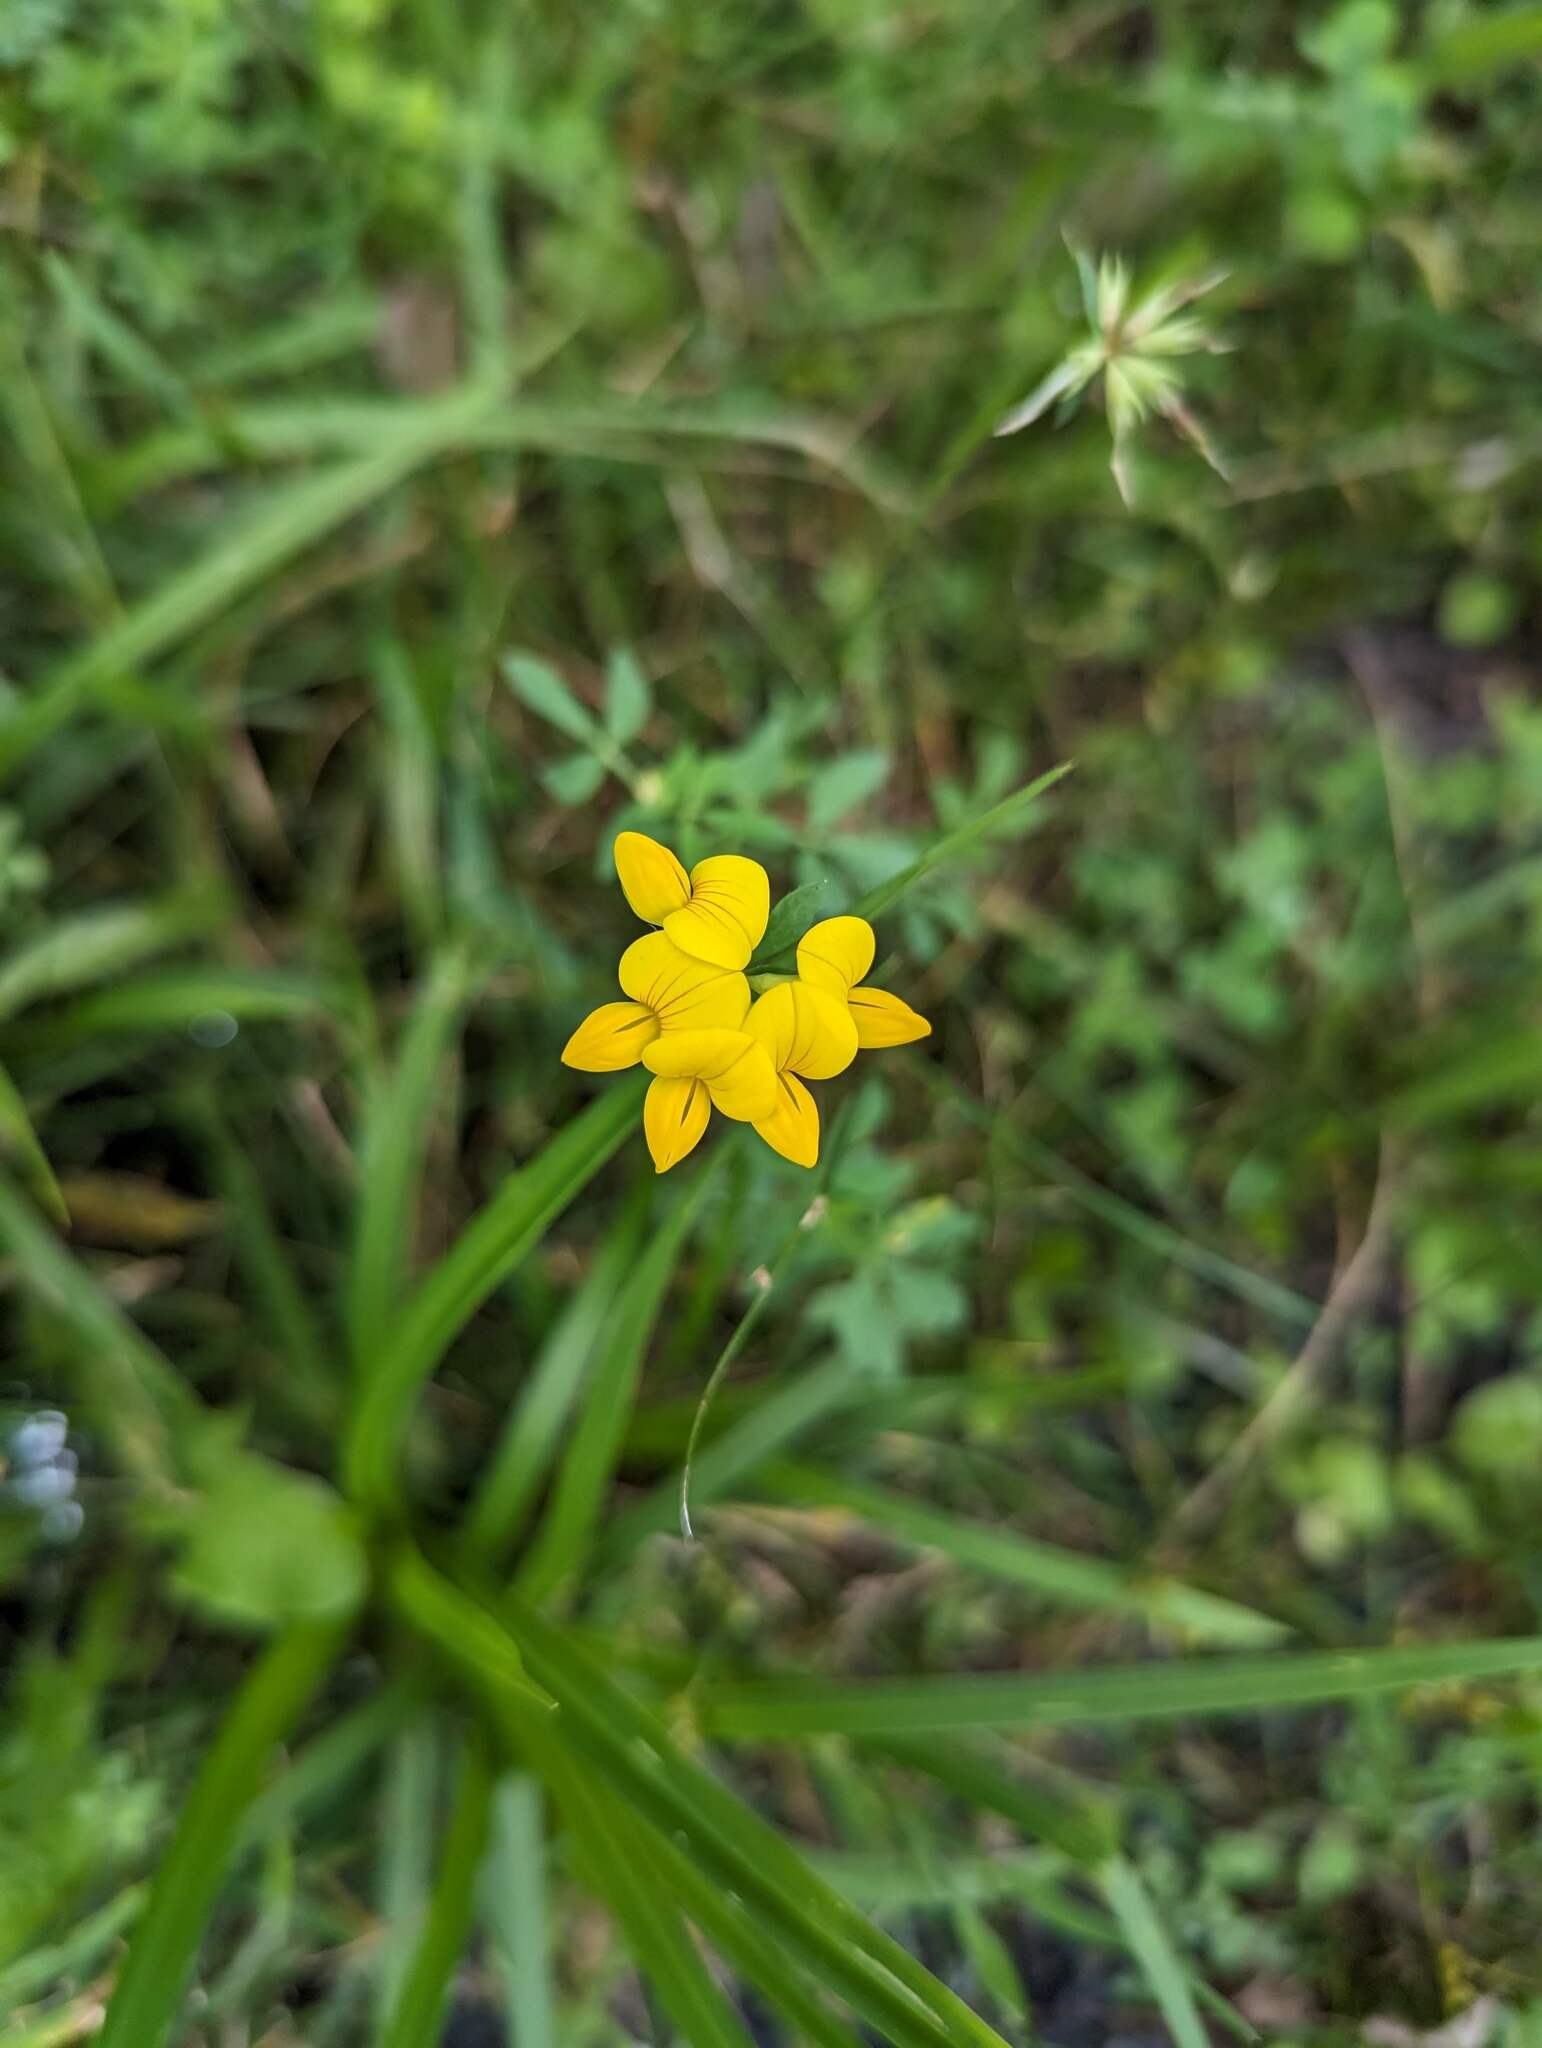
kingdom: Plantae
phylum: Tracheophyta
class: Magnoliopsida
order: Fabales
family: Fabaceae
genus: Lotus
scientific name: Lotus corniculatus
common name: Common bird's-foot-trefoil
